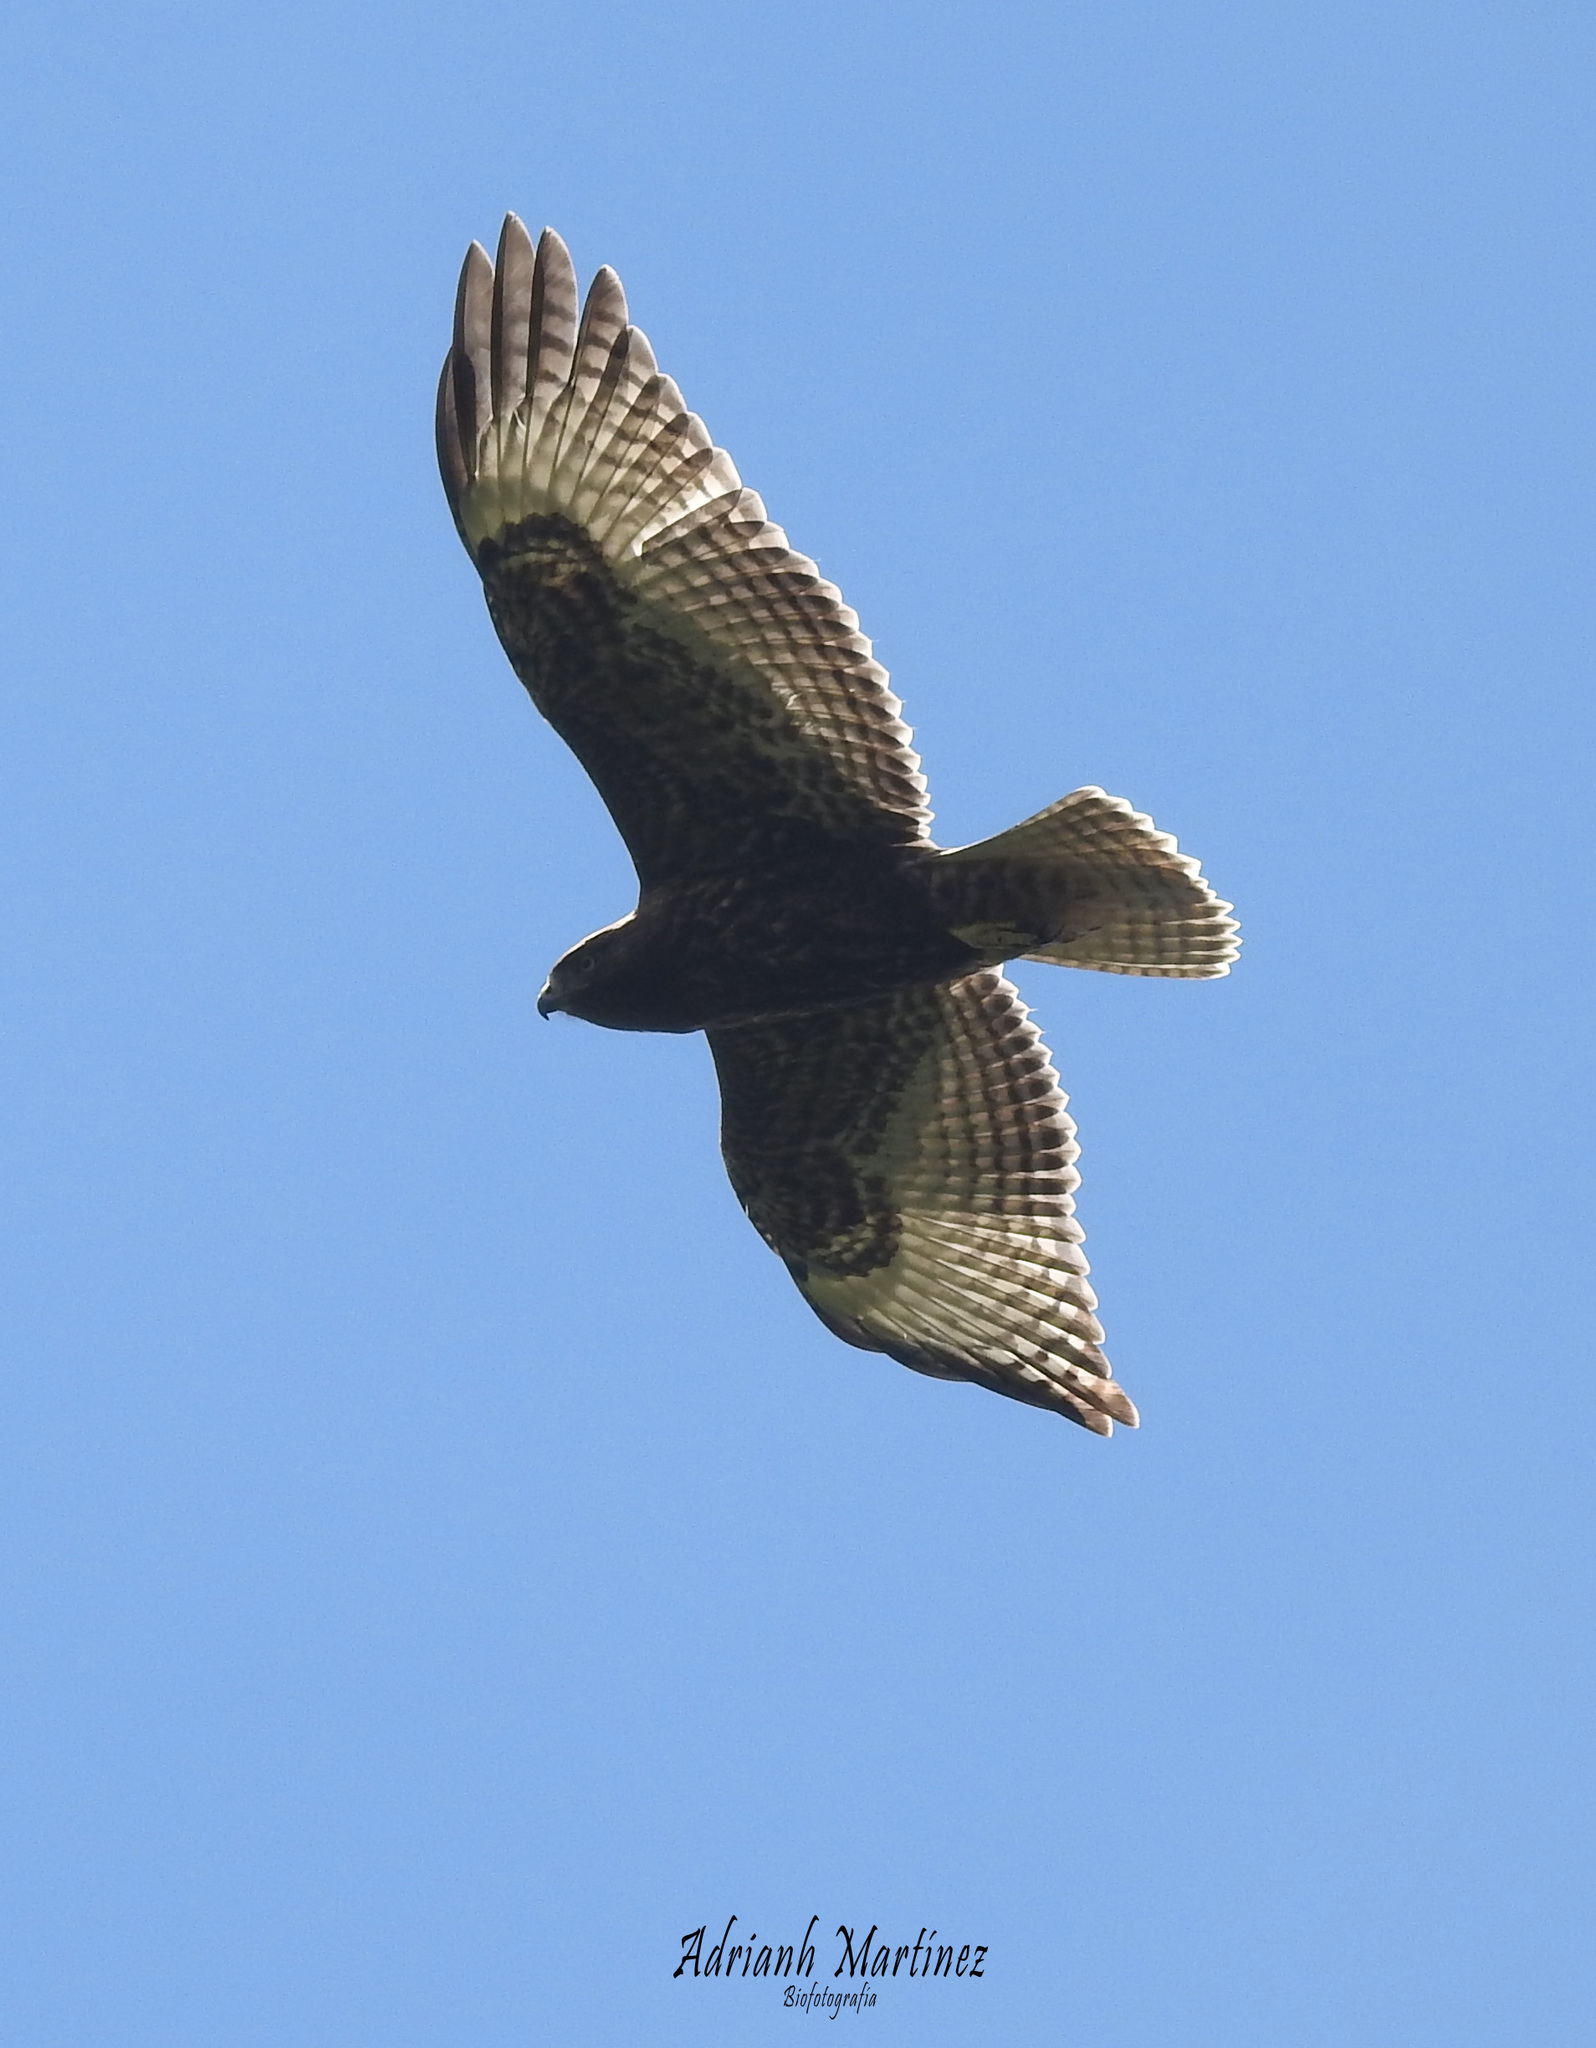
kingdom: Animalia
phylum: Chordata
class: Aves
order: Accipitriformes
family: Accipitridae
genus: Buteo
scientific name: Buteo jamaicensis
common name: Red-tailed hawk
